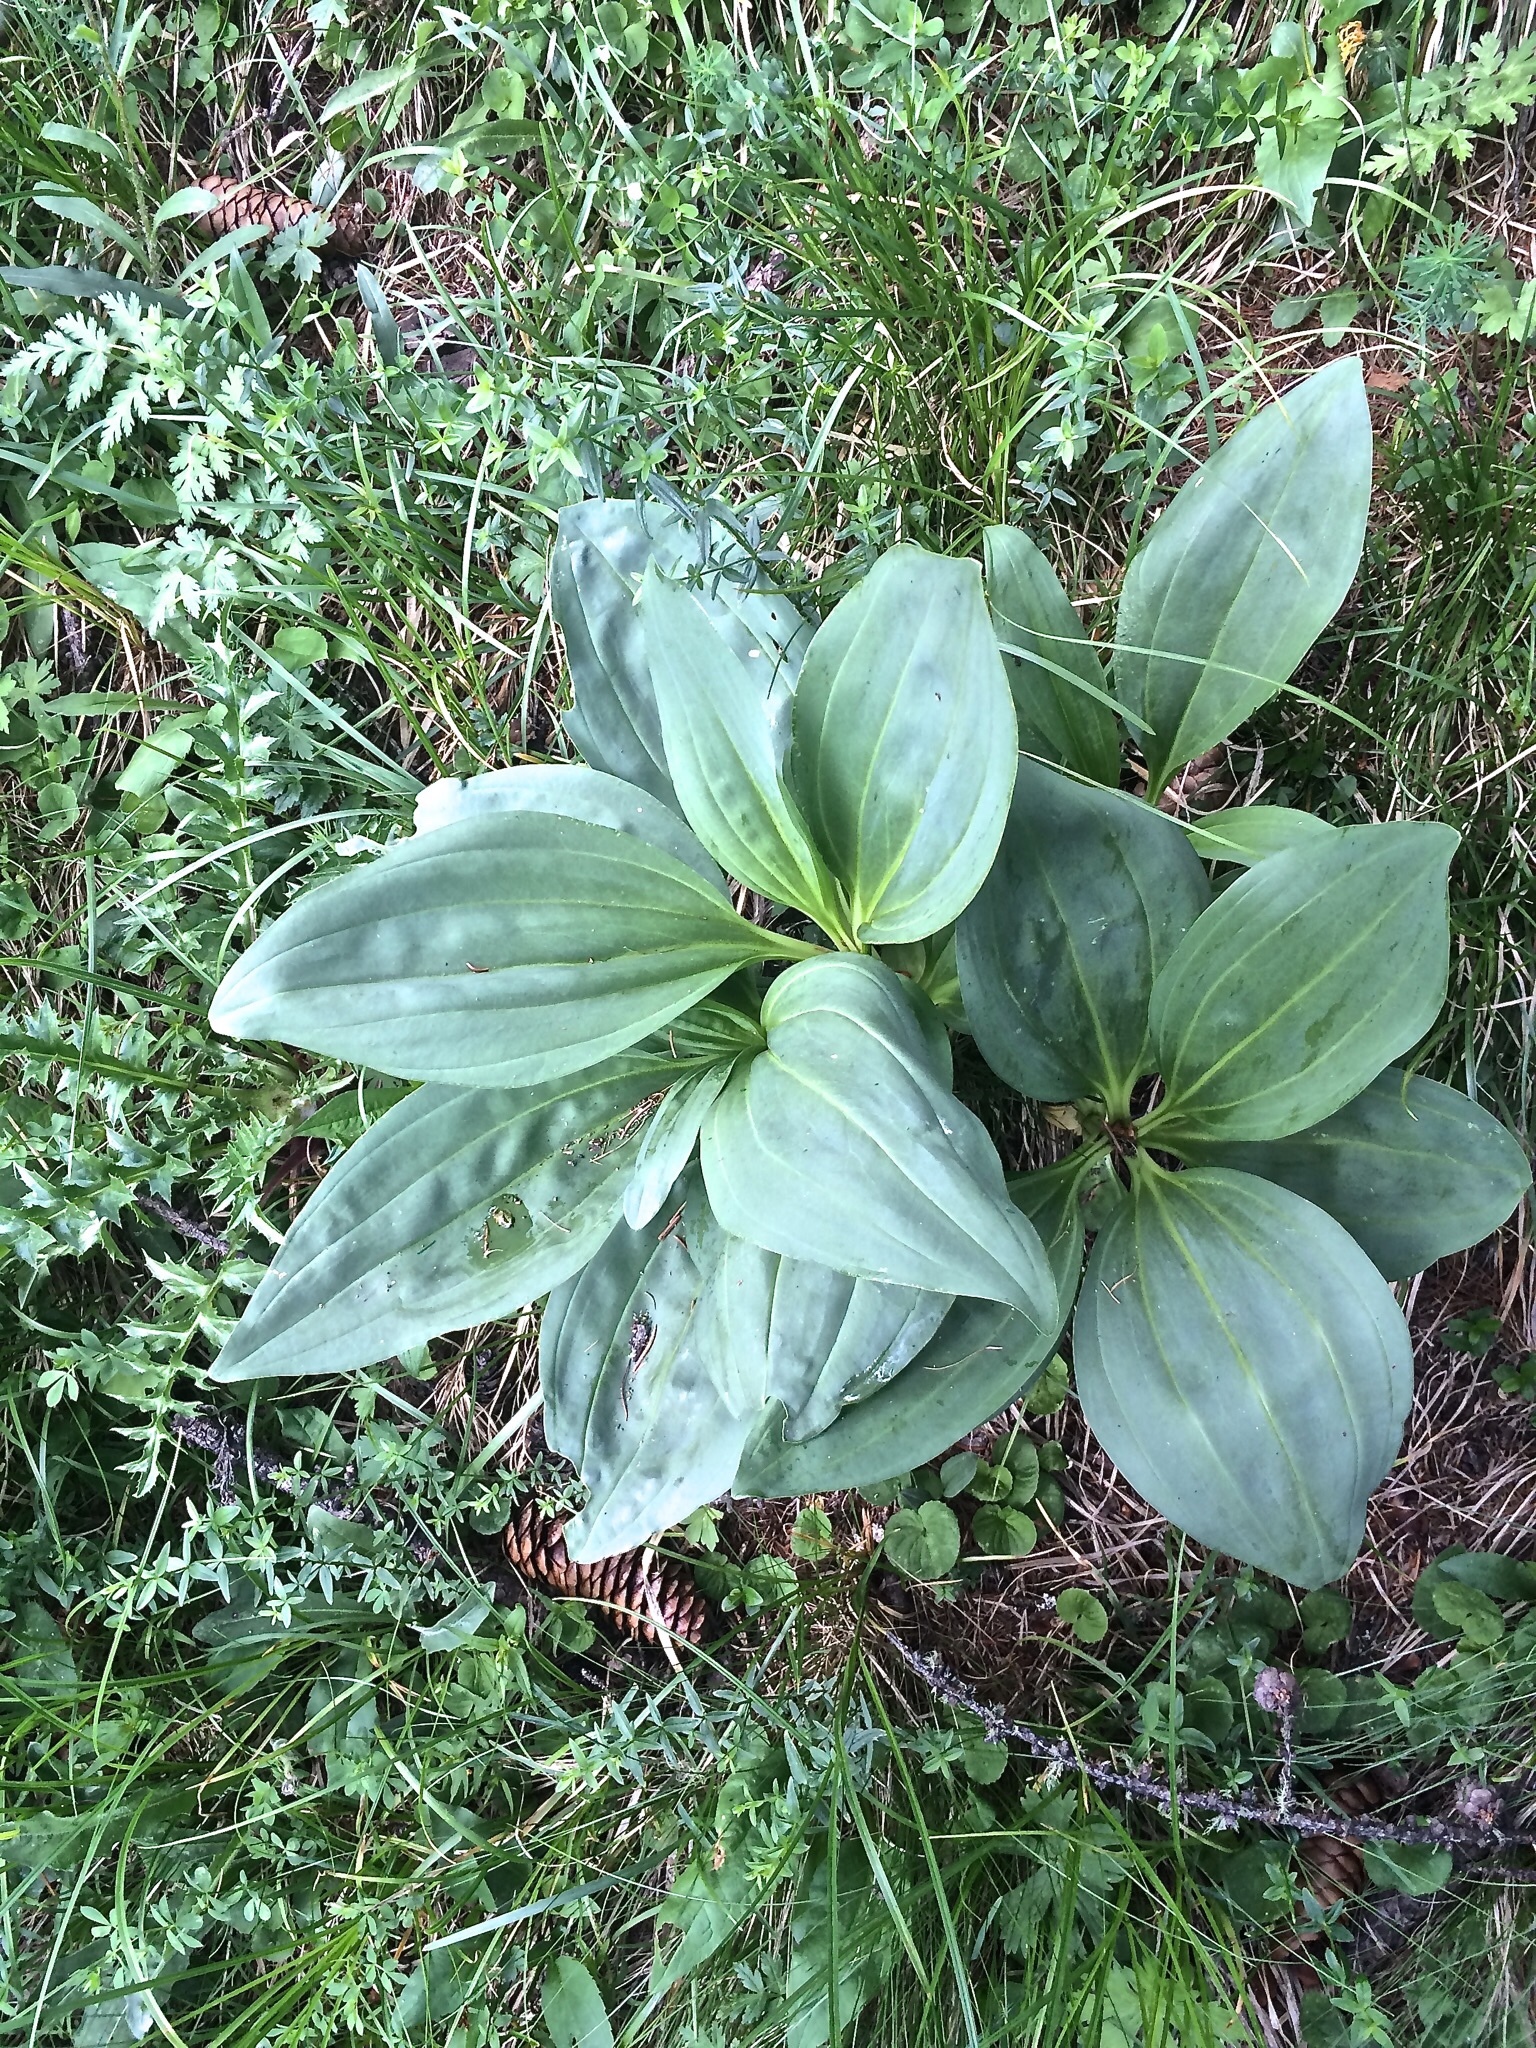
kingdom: Plantae
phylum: Tracheophyta
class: Magnoliopsida
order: Gentianales
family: Gentianaceae
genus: Gentiana
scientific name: Gentiana lutea
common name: Great yellow gentian
